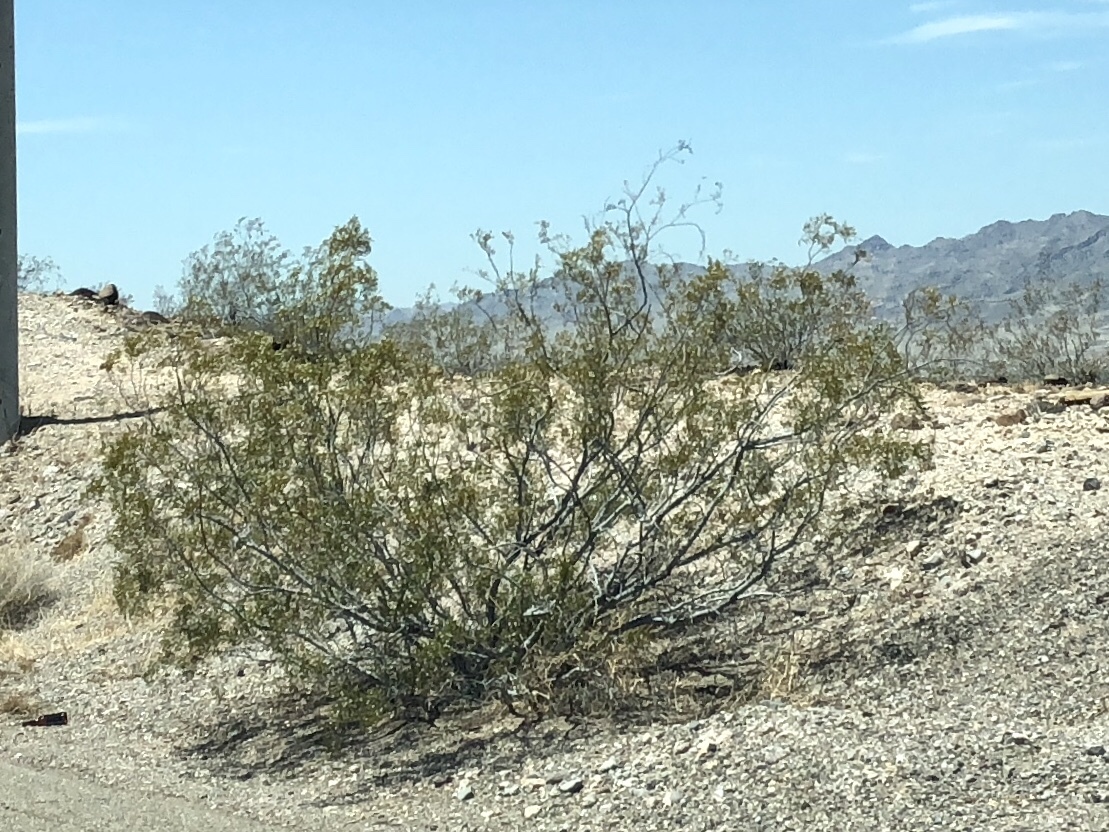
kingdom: Plantae
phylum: Tracheophyta
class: Magnoliopsida
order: Zygophyllales
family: Zygophyllaceae
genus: Larrea
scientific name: Larrea tridentata
